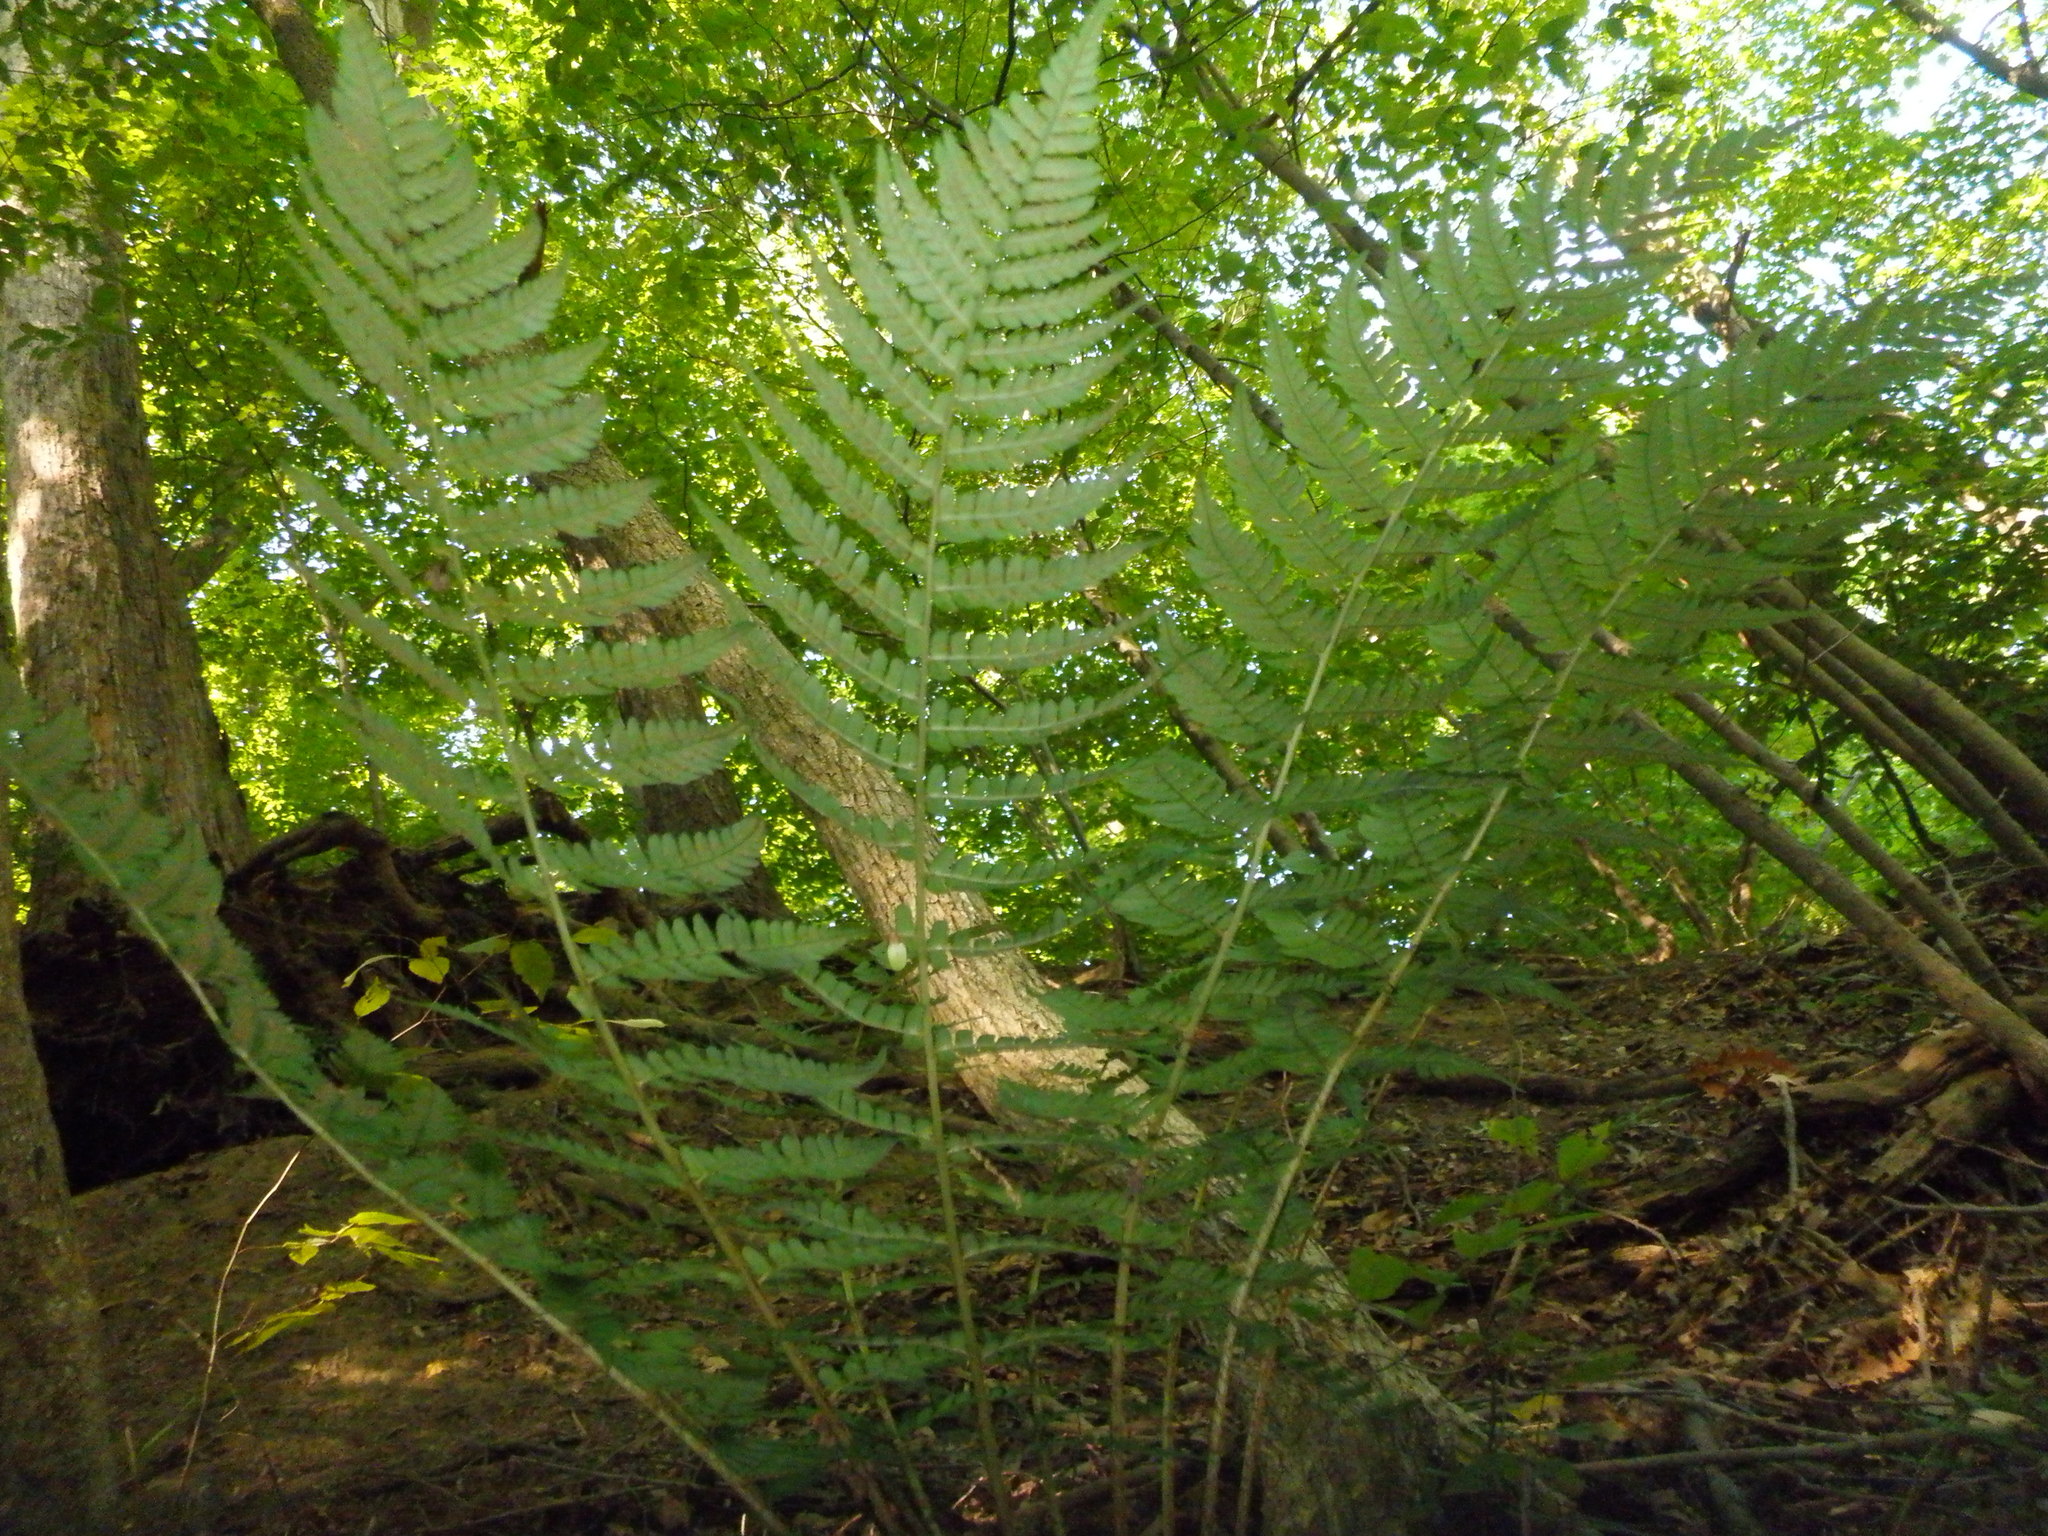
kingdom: Plantae
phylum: Tracheophyta
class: Polypodiopsida
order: Polypodiales
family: Dryopteridaceae
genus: Dryopteris
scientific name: Dryopteris marginalis
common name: Marginal wood fern
